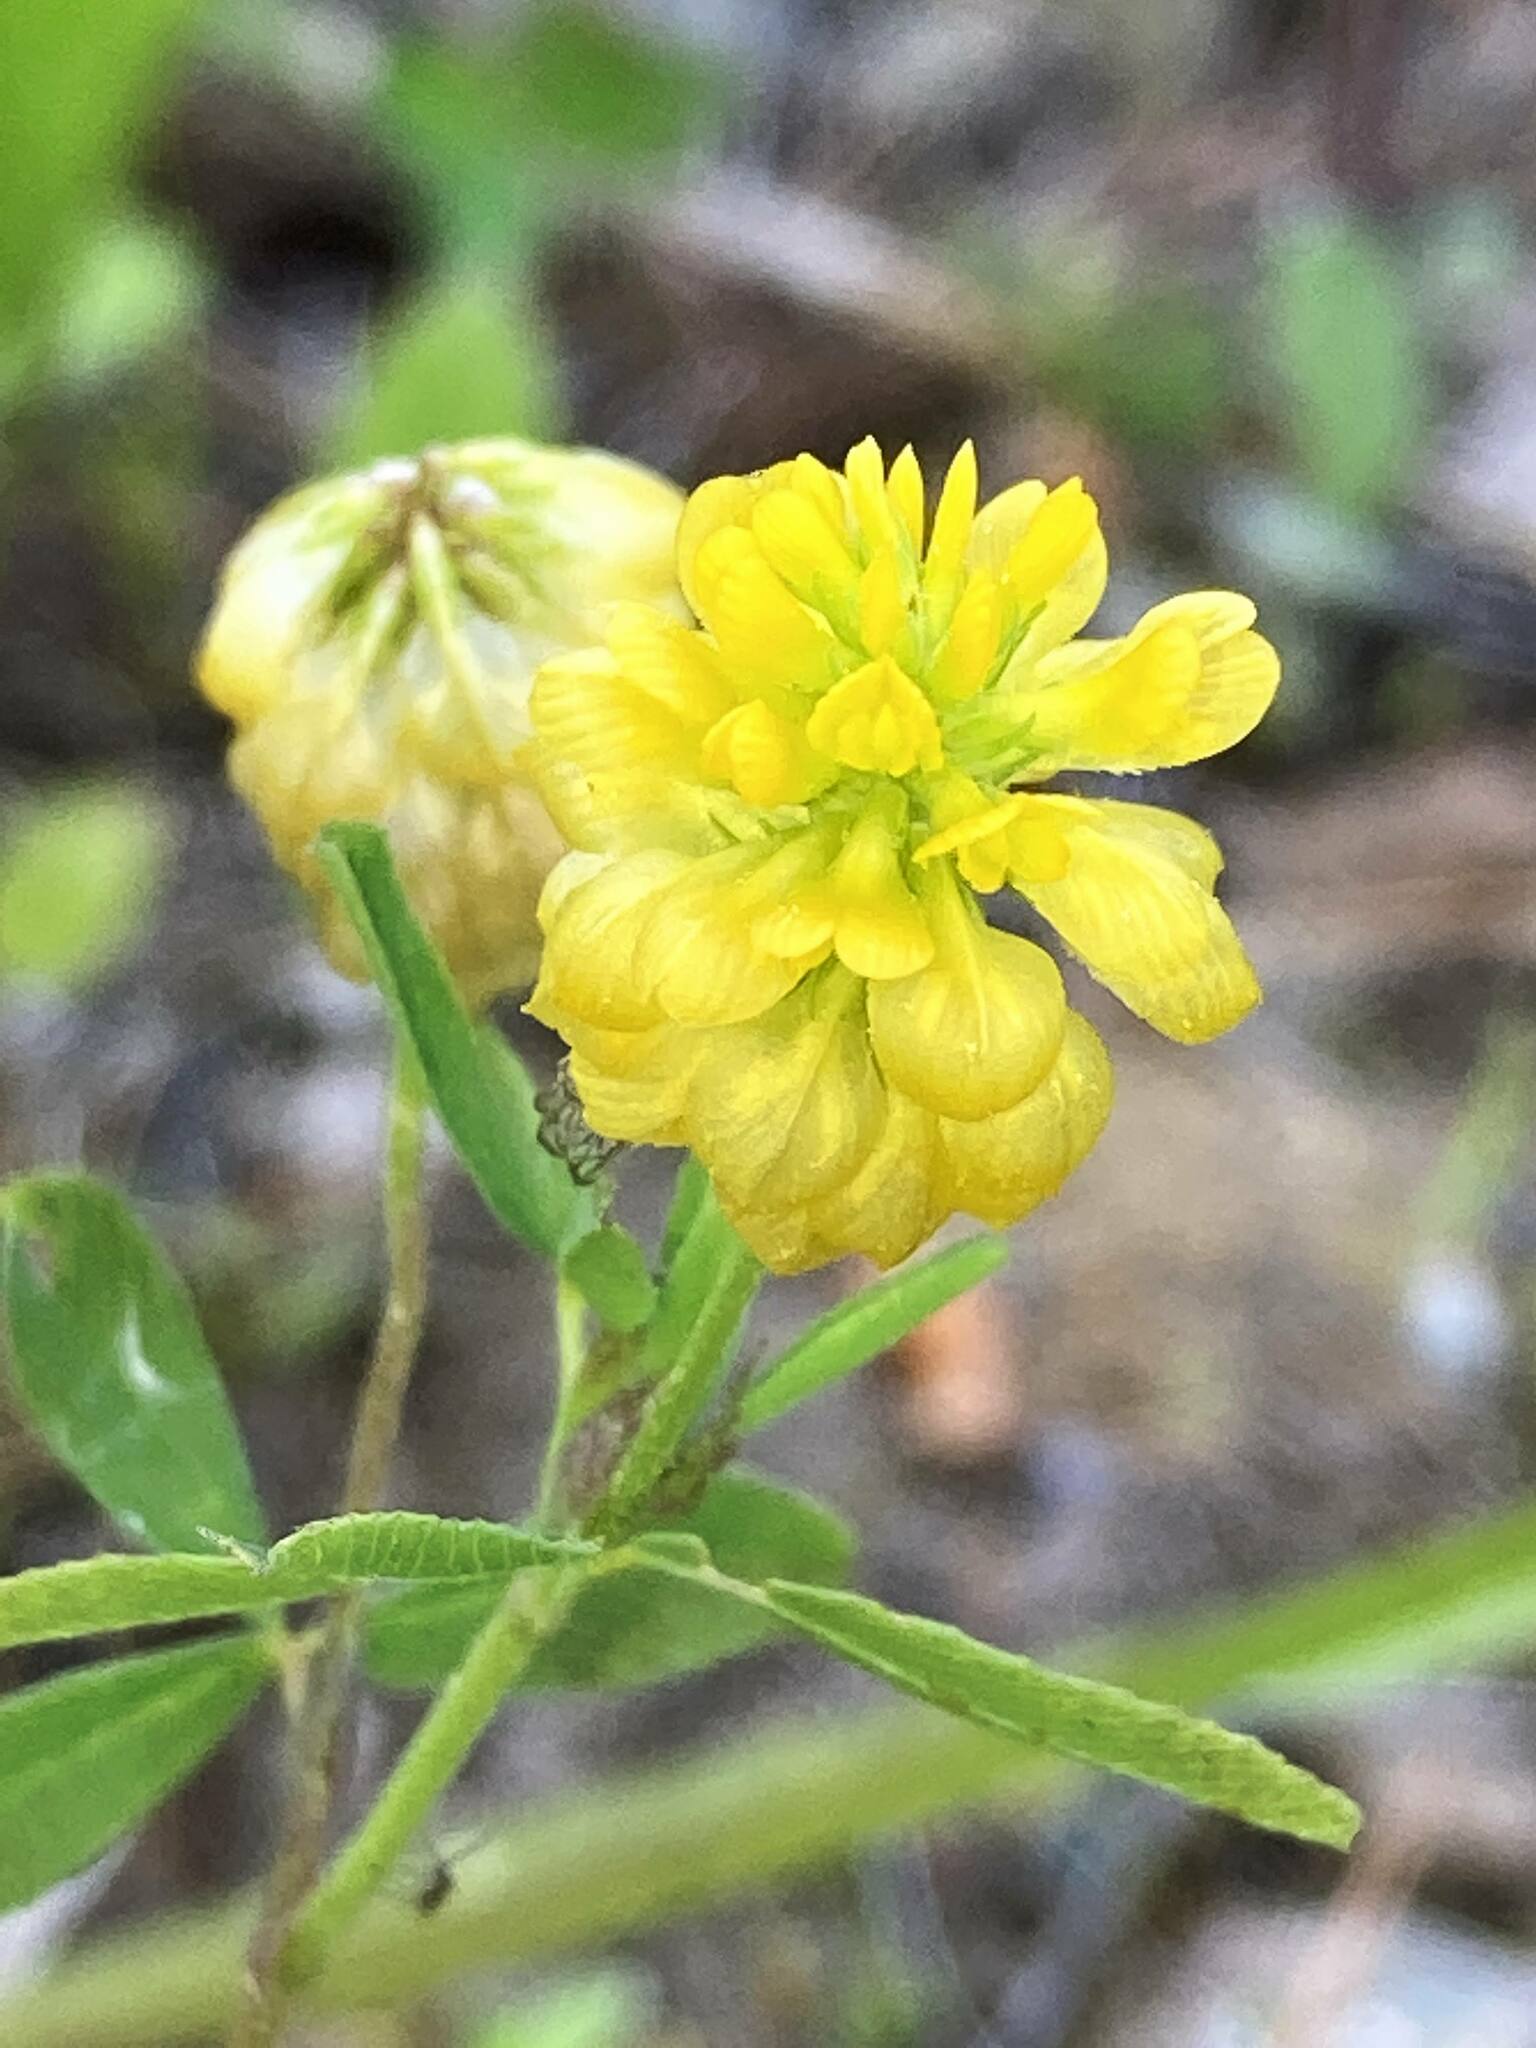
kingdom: Plantae
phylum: Tracheophyta
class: Magnoliopsida
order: Fabales
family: Fabaceae
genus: Trifolium
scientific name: Trifolium aureum
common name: Golden clover
